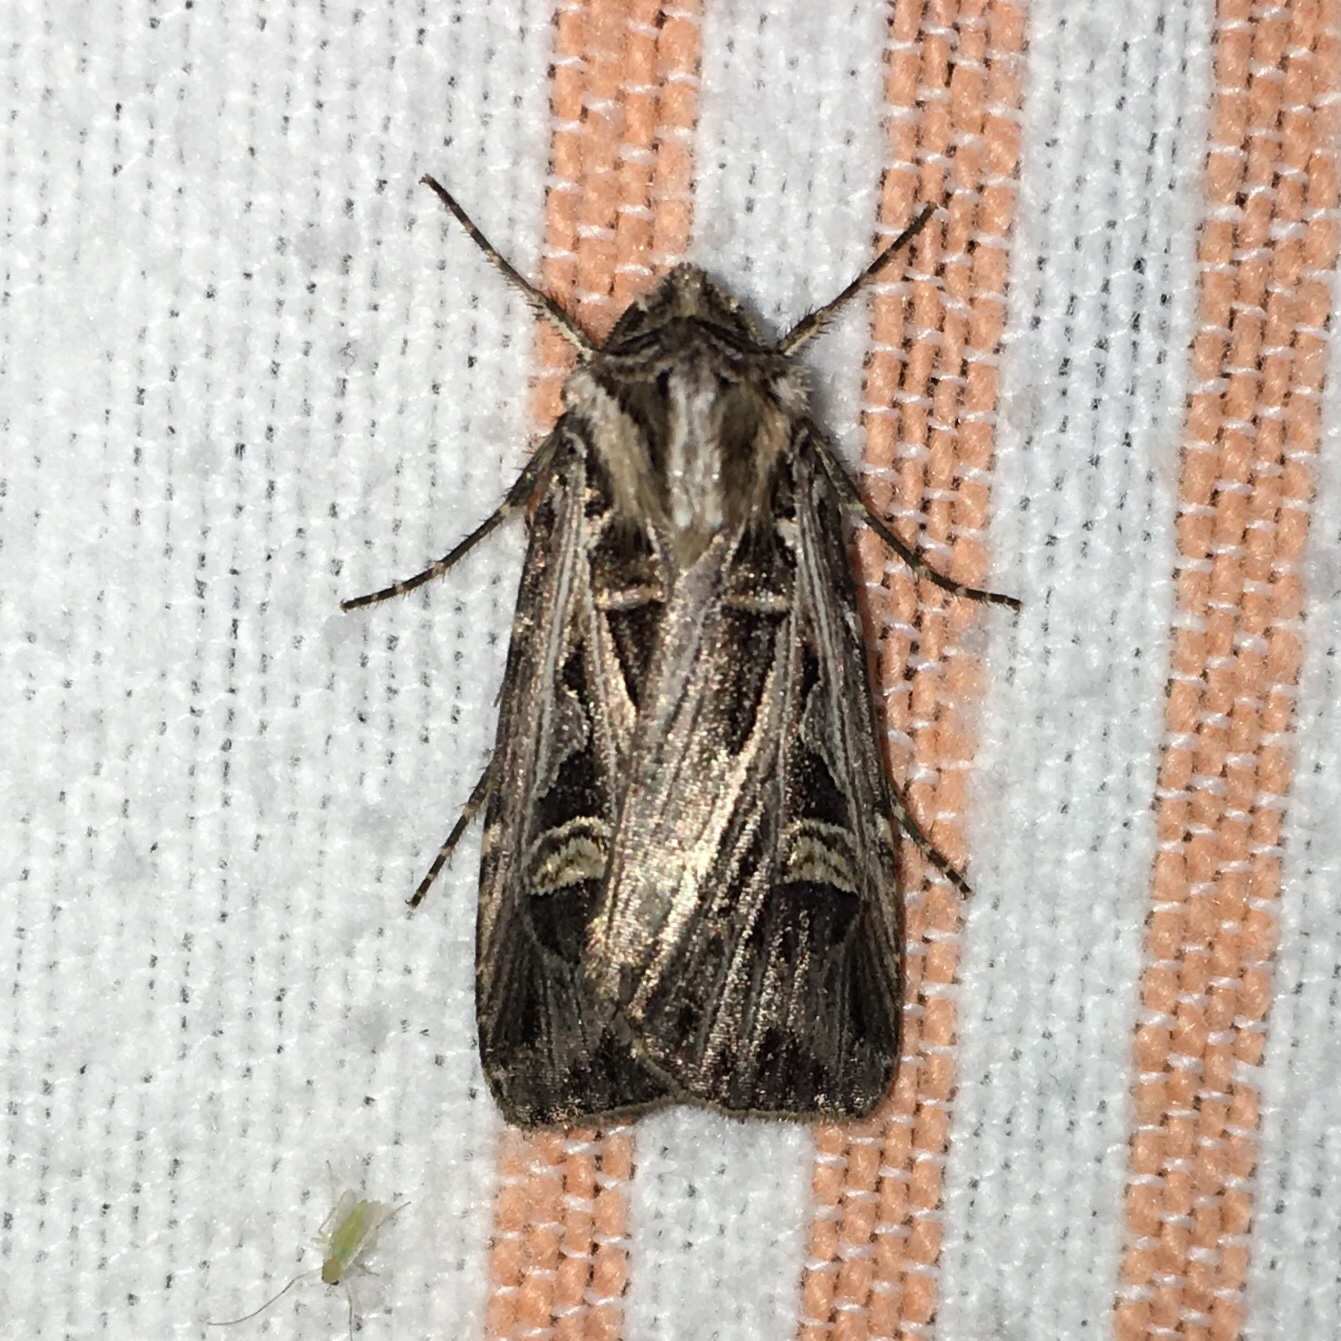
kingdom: Animalia
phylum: Arthropoda
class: Insecta
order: Lepidoptera
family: Noctuidae
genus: Feltia
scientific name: Feltia jaculifera
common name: Dingy cutworm moth
